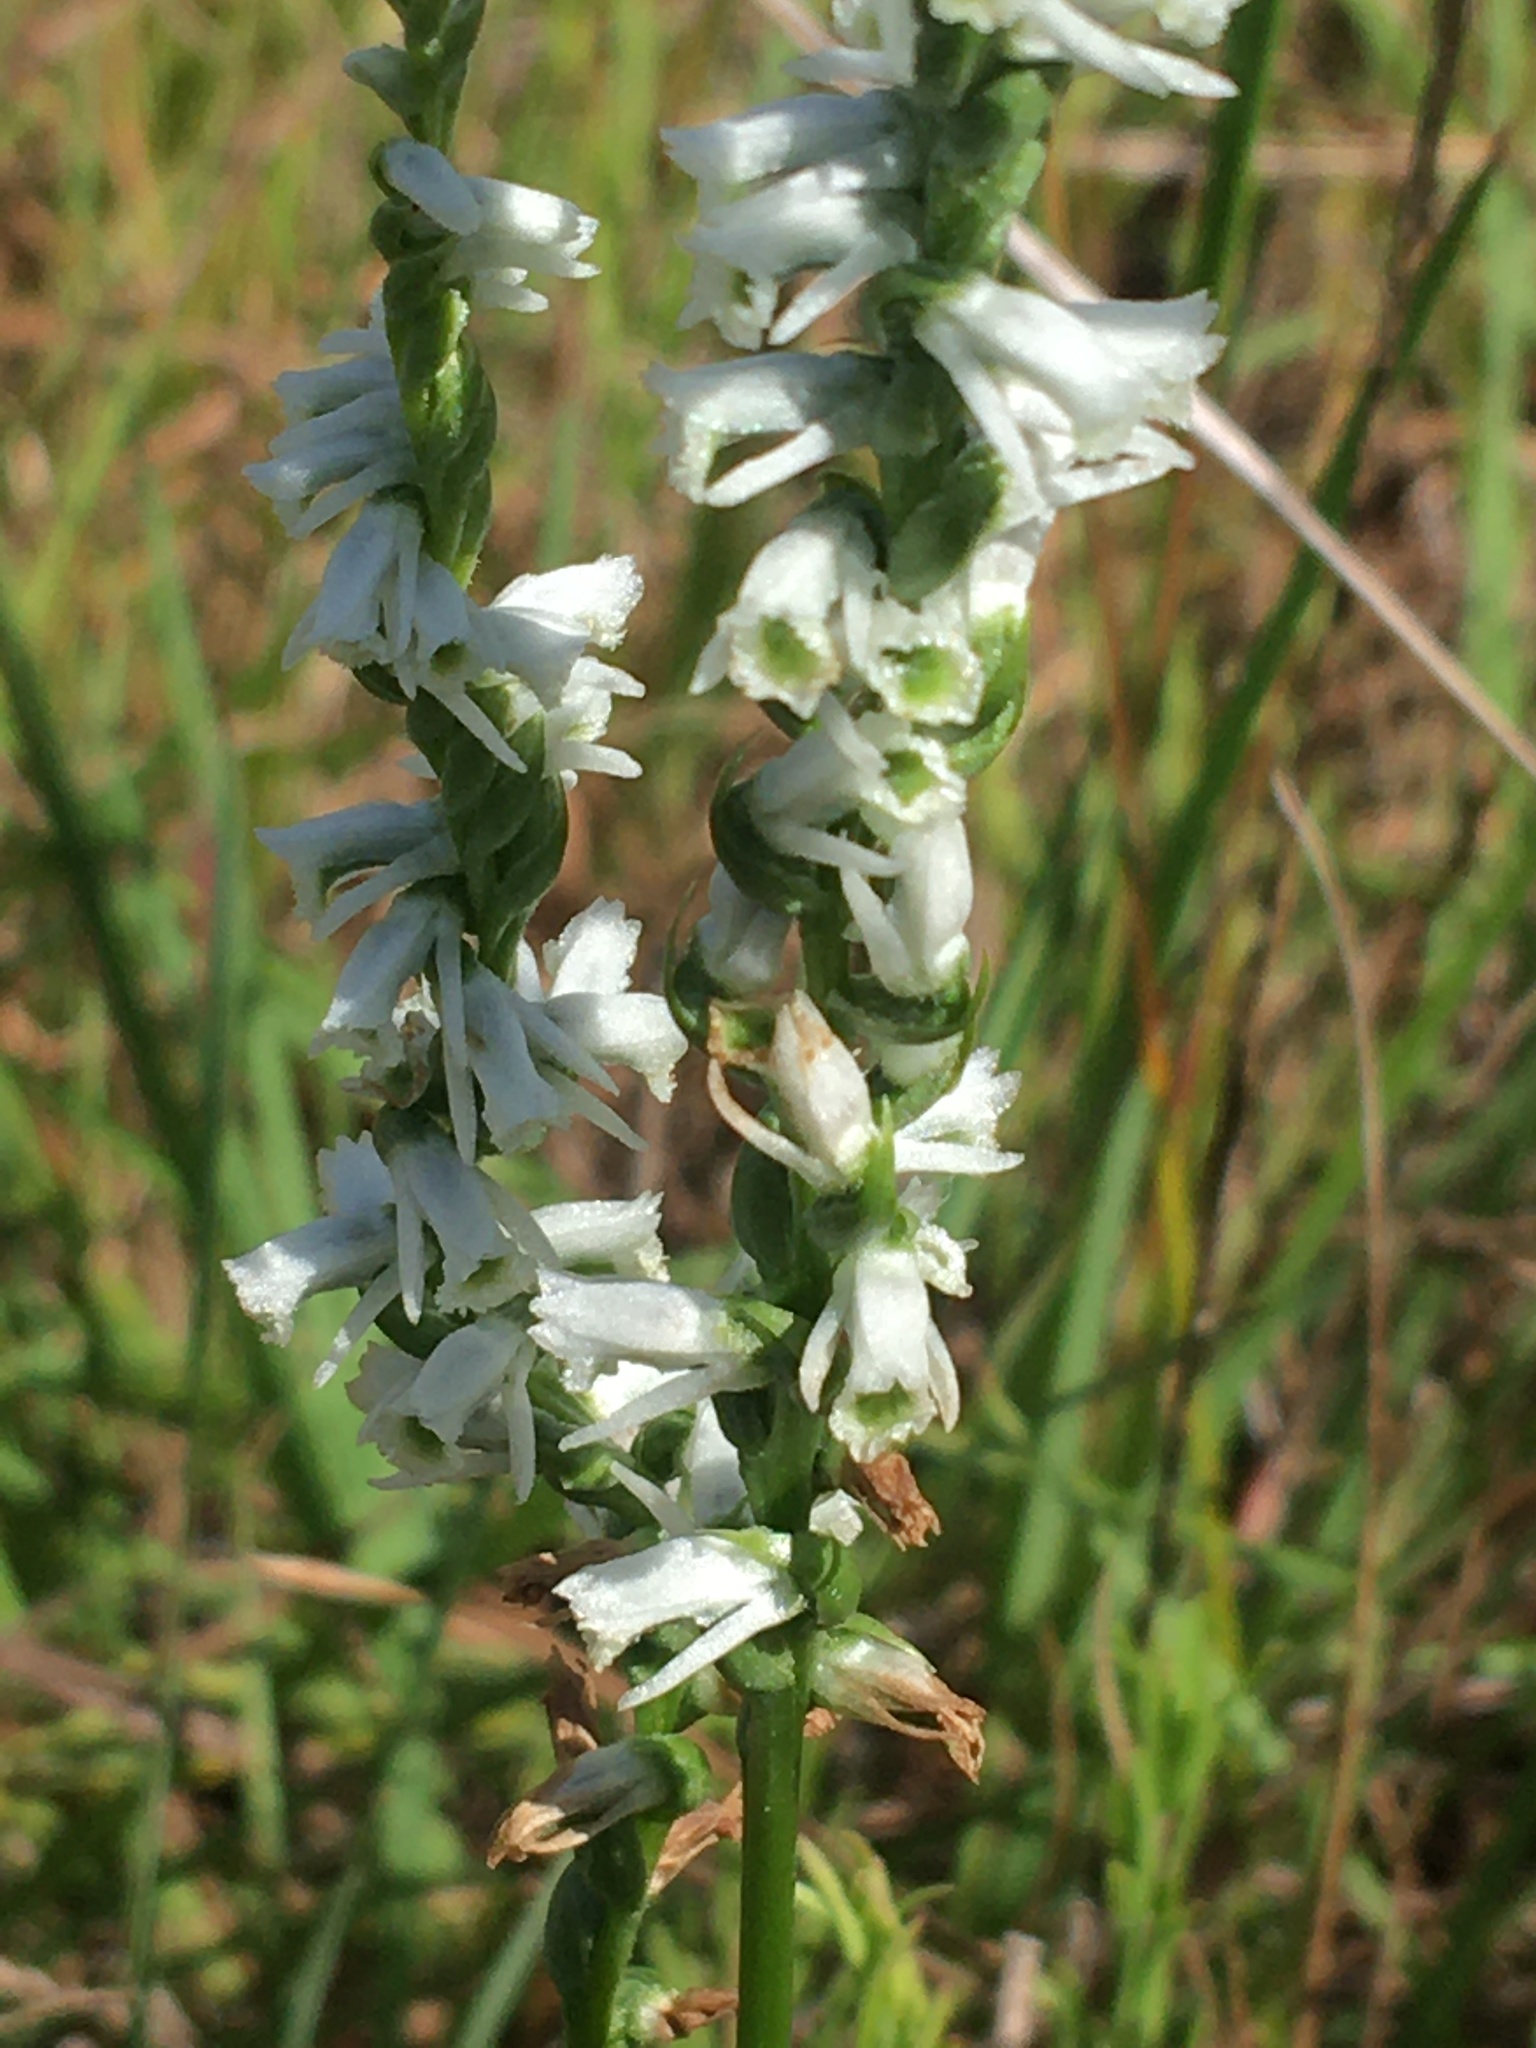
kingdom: Plantae
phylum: Tracheophyta
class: Liliopsida
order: Asparagales
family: Orchidaceae
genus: Spiranthes
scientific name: Spiranthes lacera
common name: Northern slender ladies'-tresses
